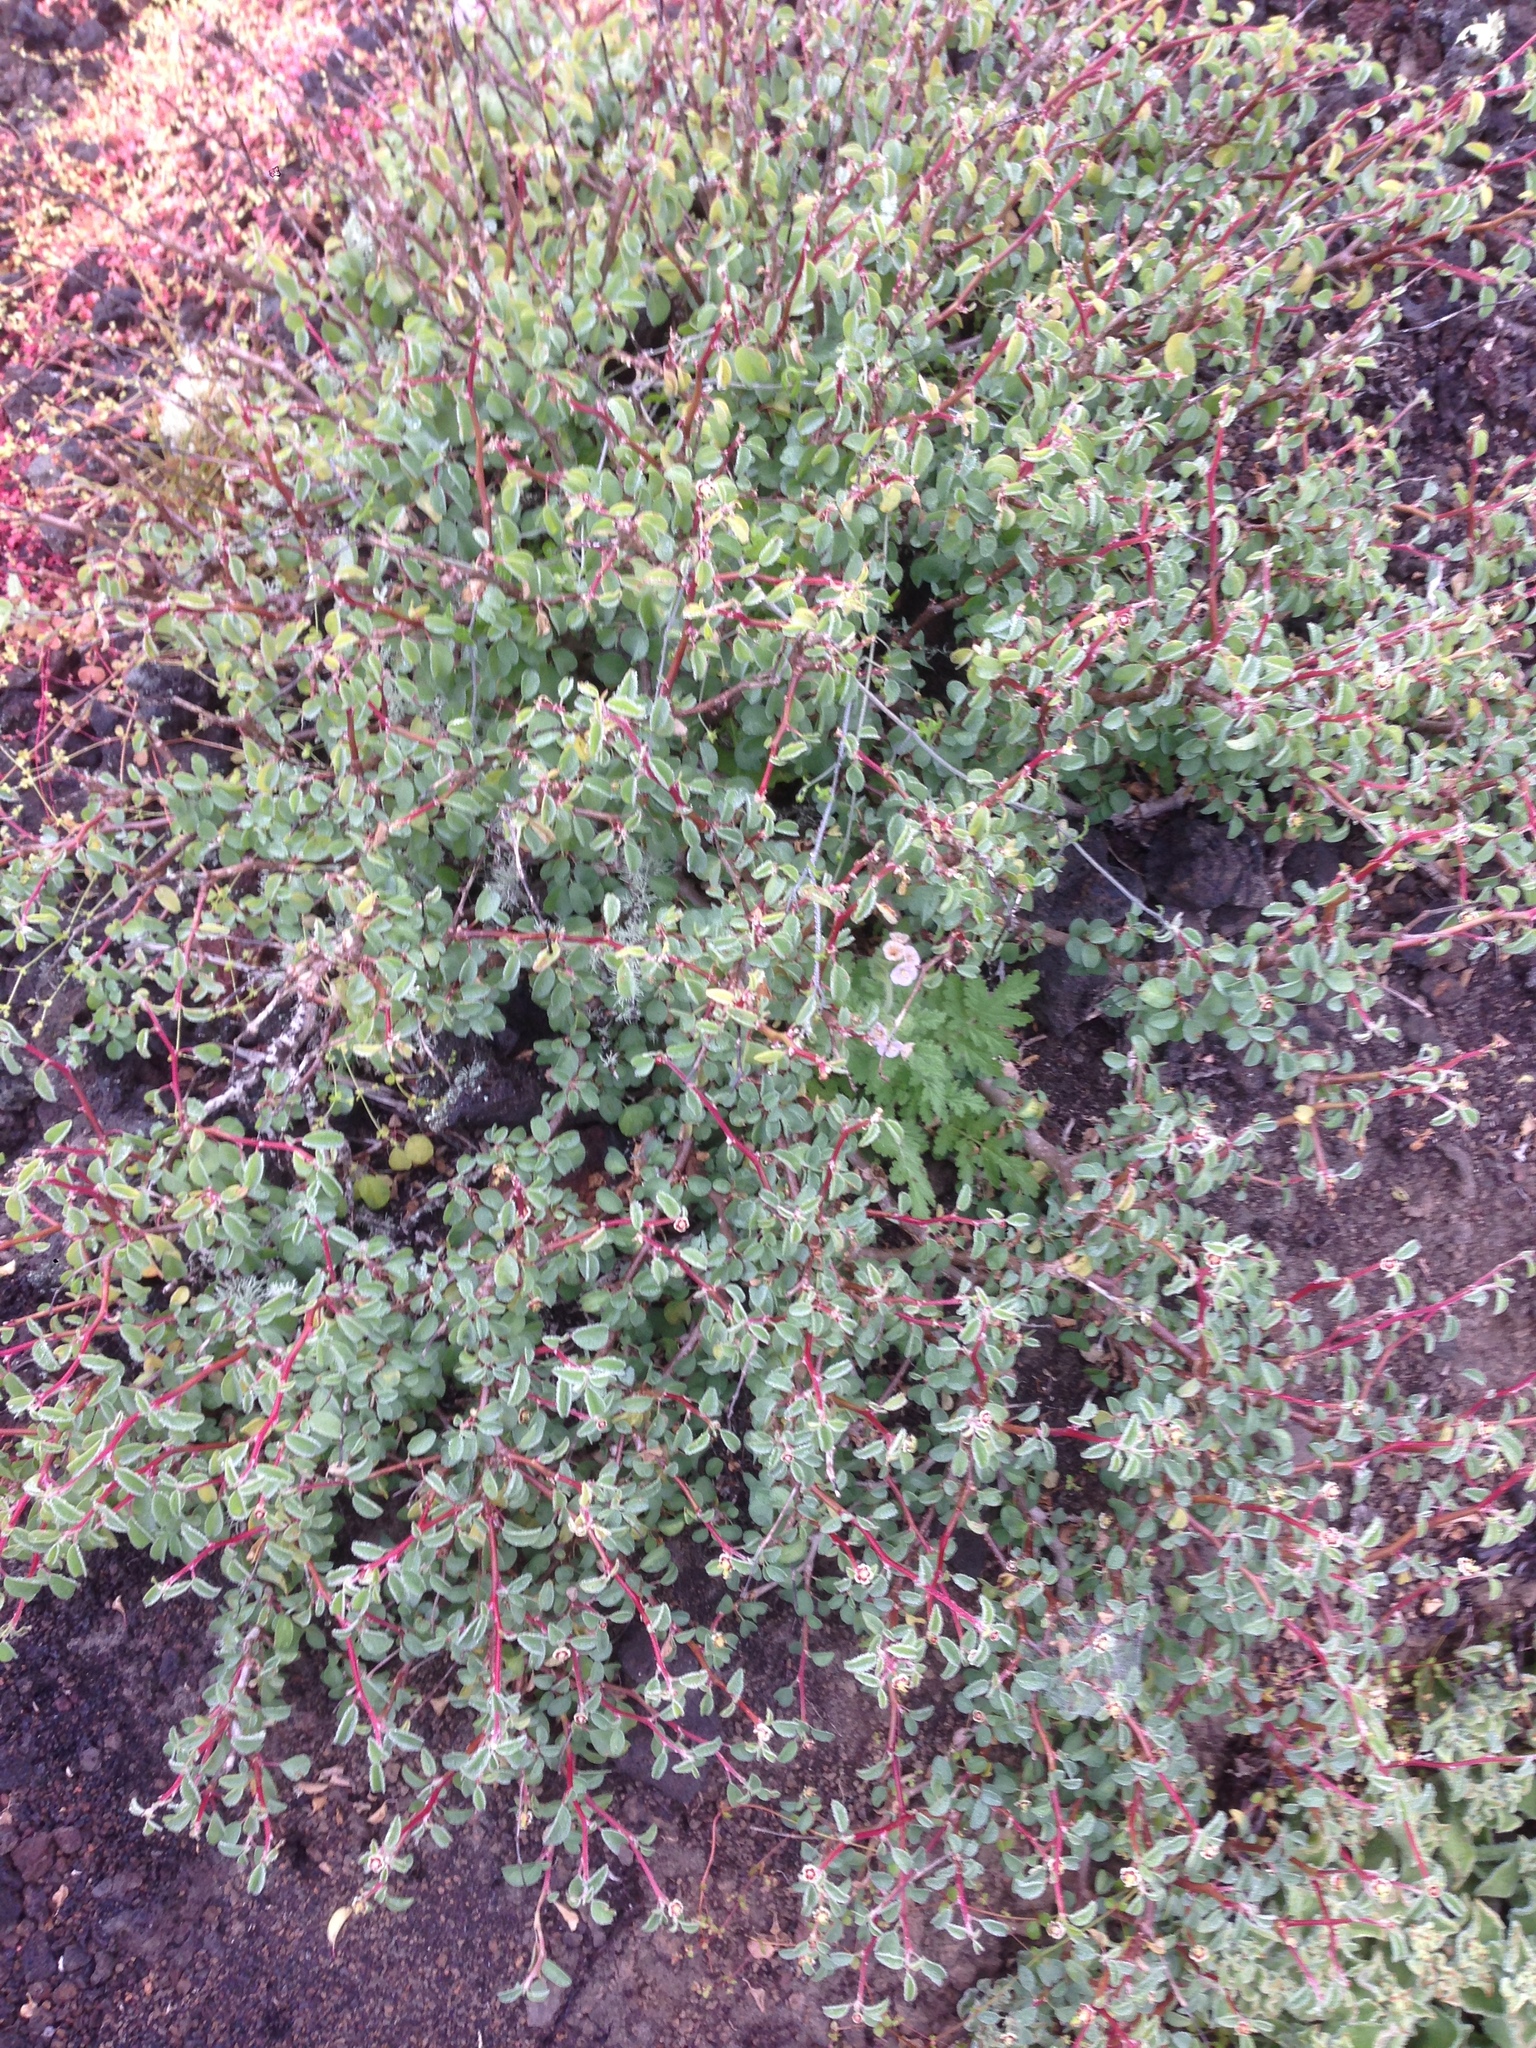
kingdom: Plantae
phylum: Tracheophyta
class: Magnoliopsida
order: Malpighiales
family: Euphorbiaceae
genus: Euphorbia
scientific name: Euphorbia misera
